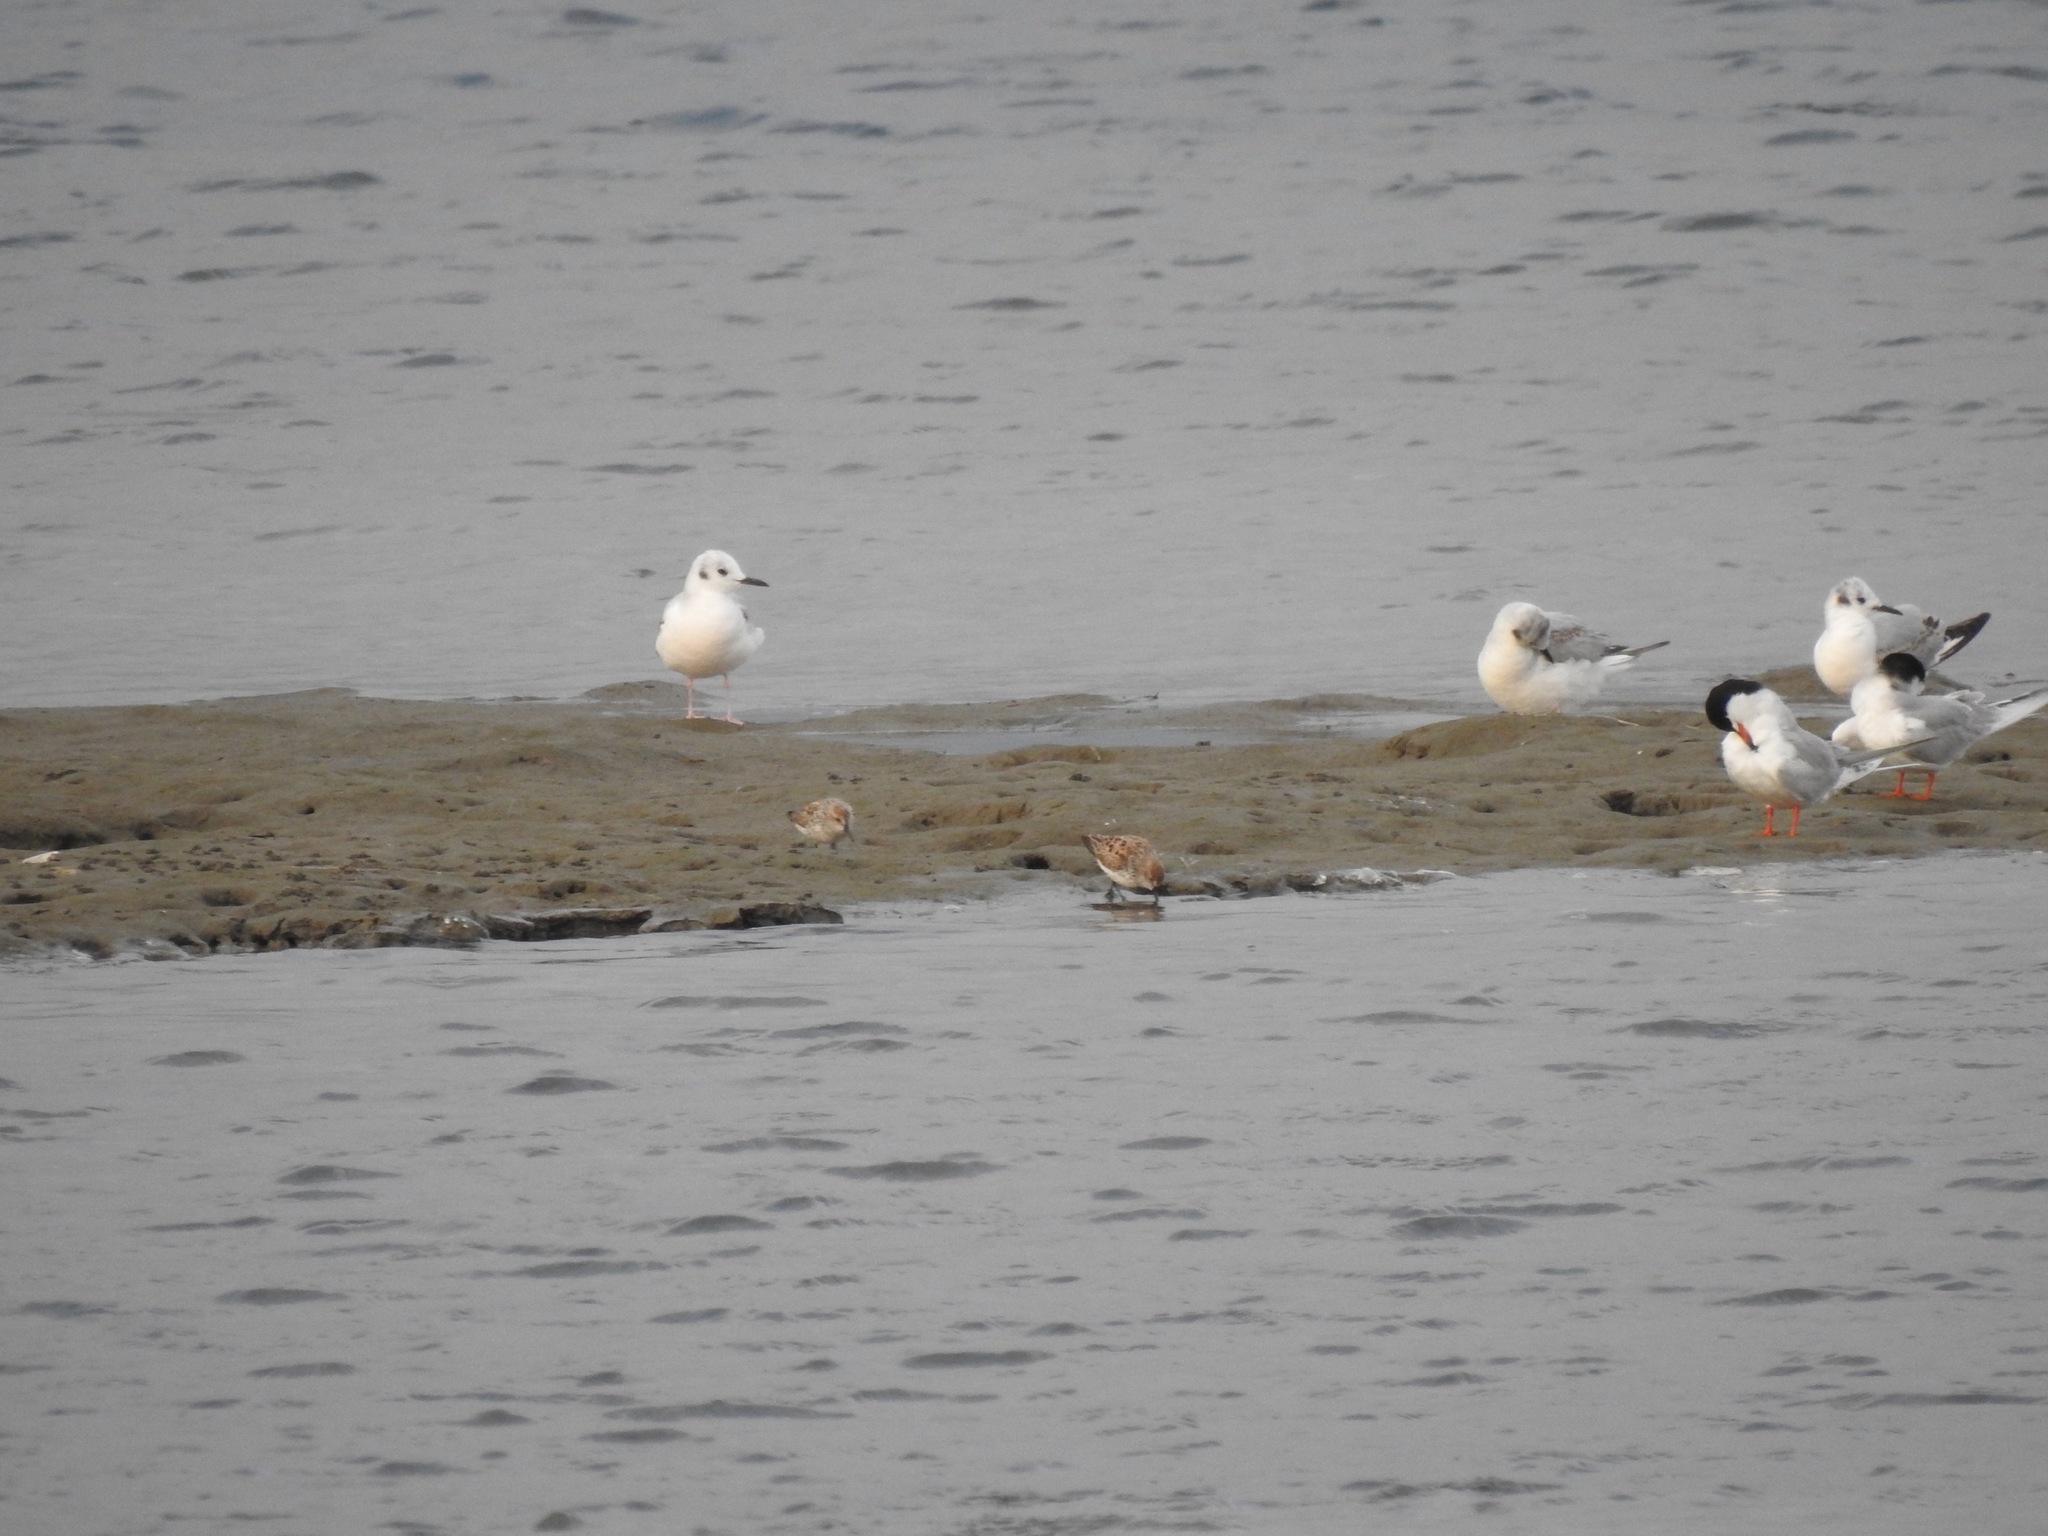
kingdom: Animalia
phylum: Chordata
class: Aves
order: Charadriiformes
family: Laridae
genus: Chroicocephalus
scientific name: Chroicocephalus philadelphia
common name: Bonaparte's gull
